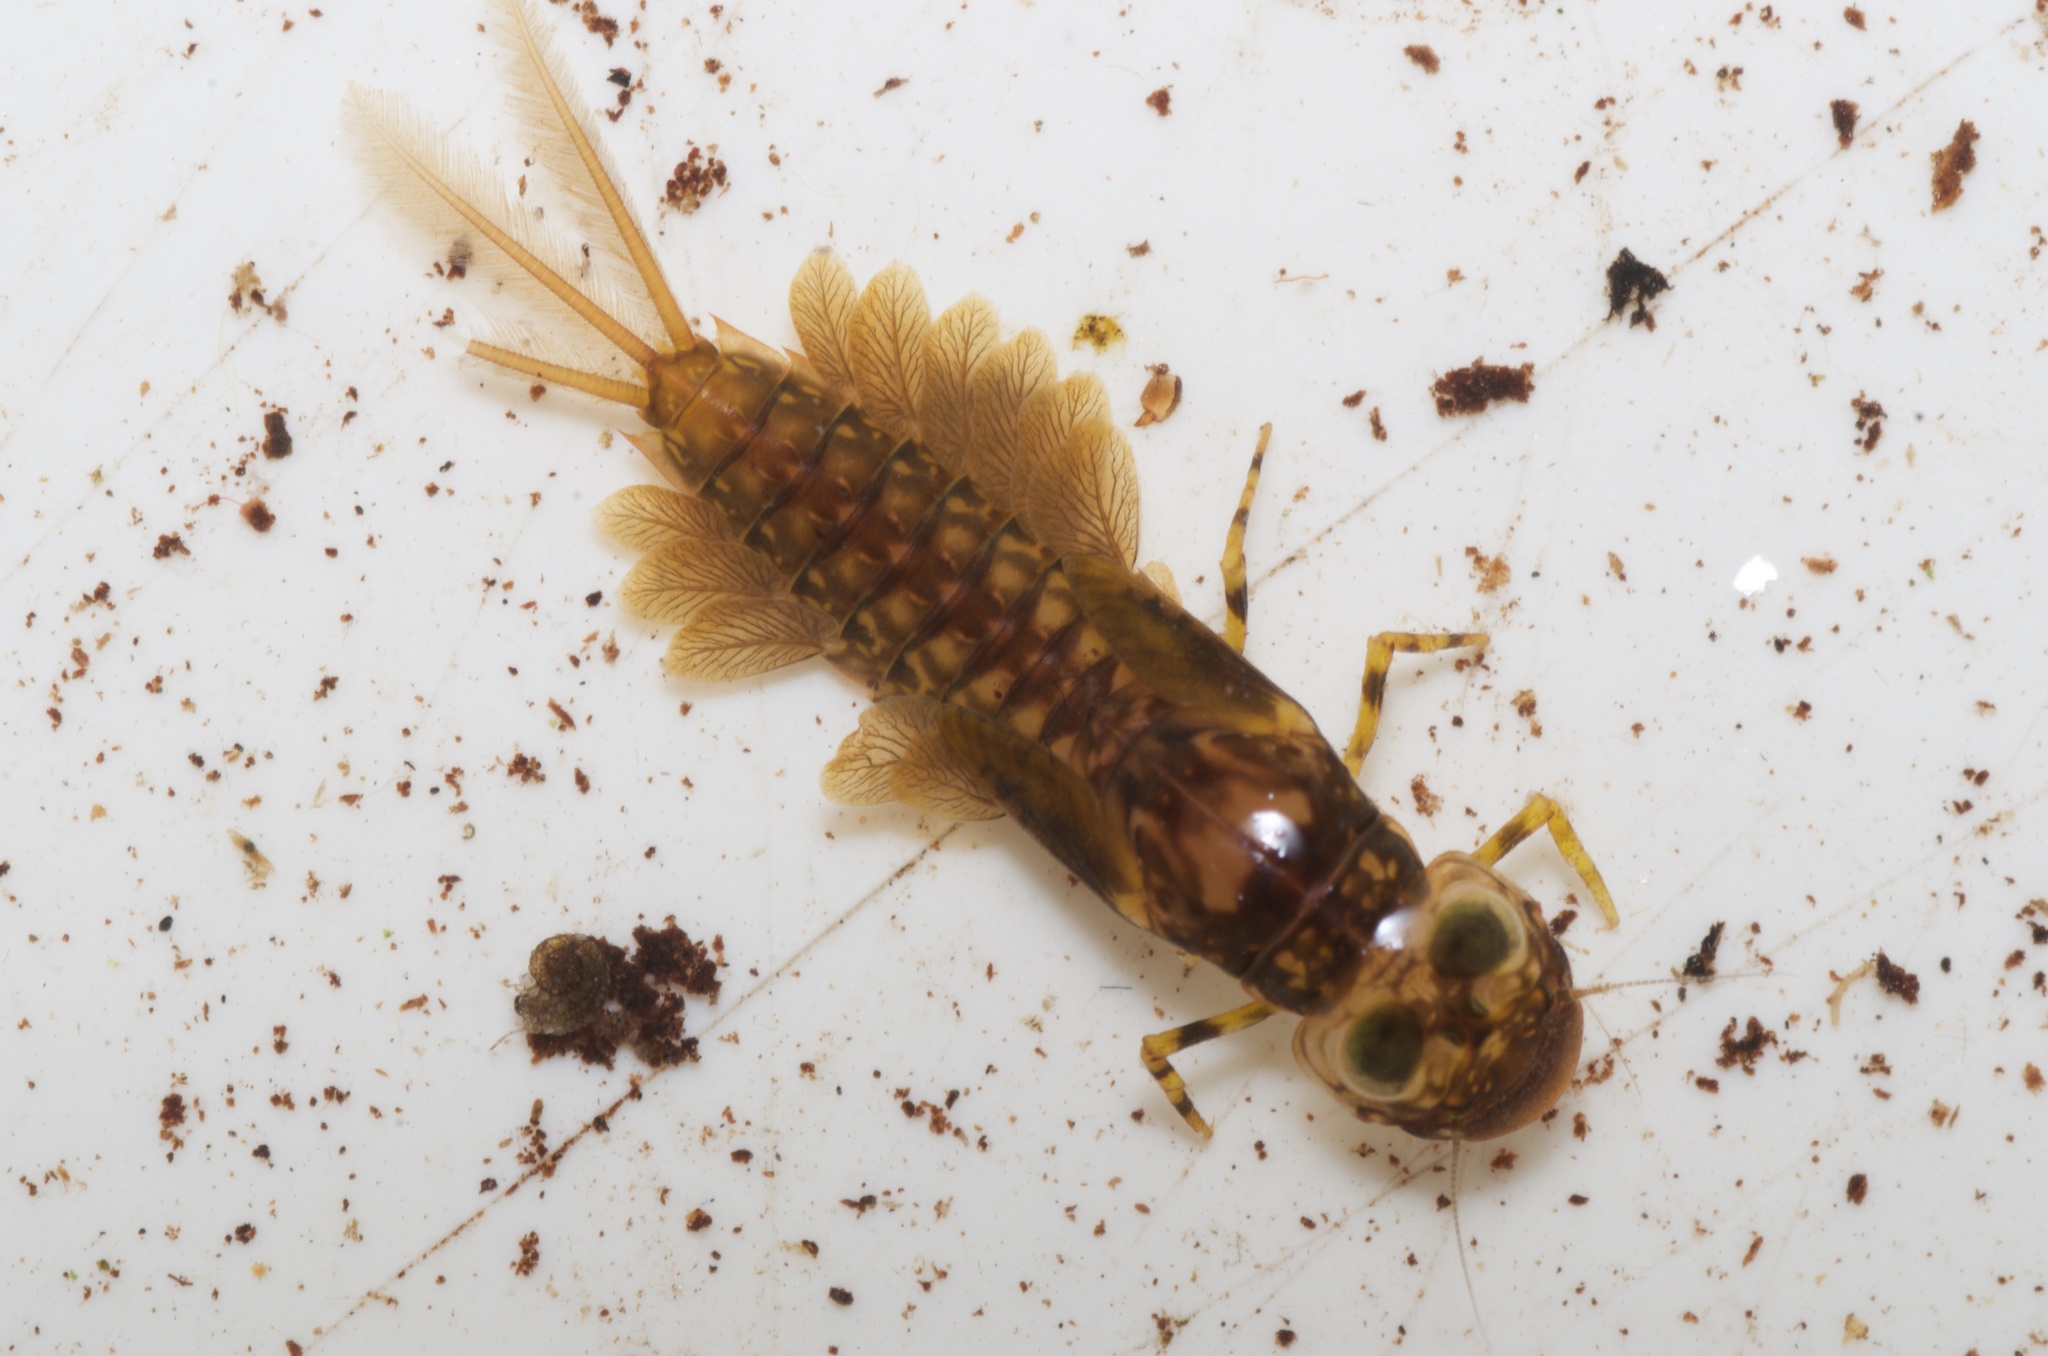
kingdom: Animalia
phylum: Arthropoda
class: Insecta
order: Ephemeroptera
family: Ameletopsidae
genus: Ameletopsis
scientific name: Ameletopsis perscitus
